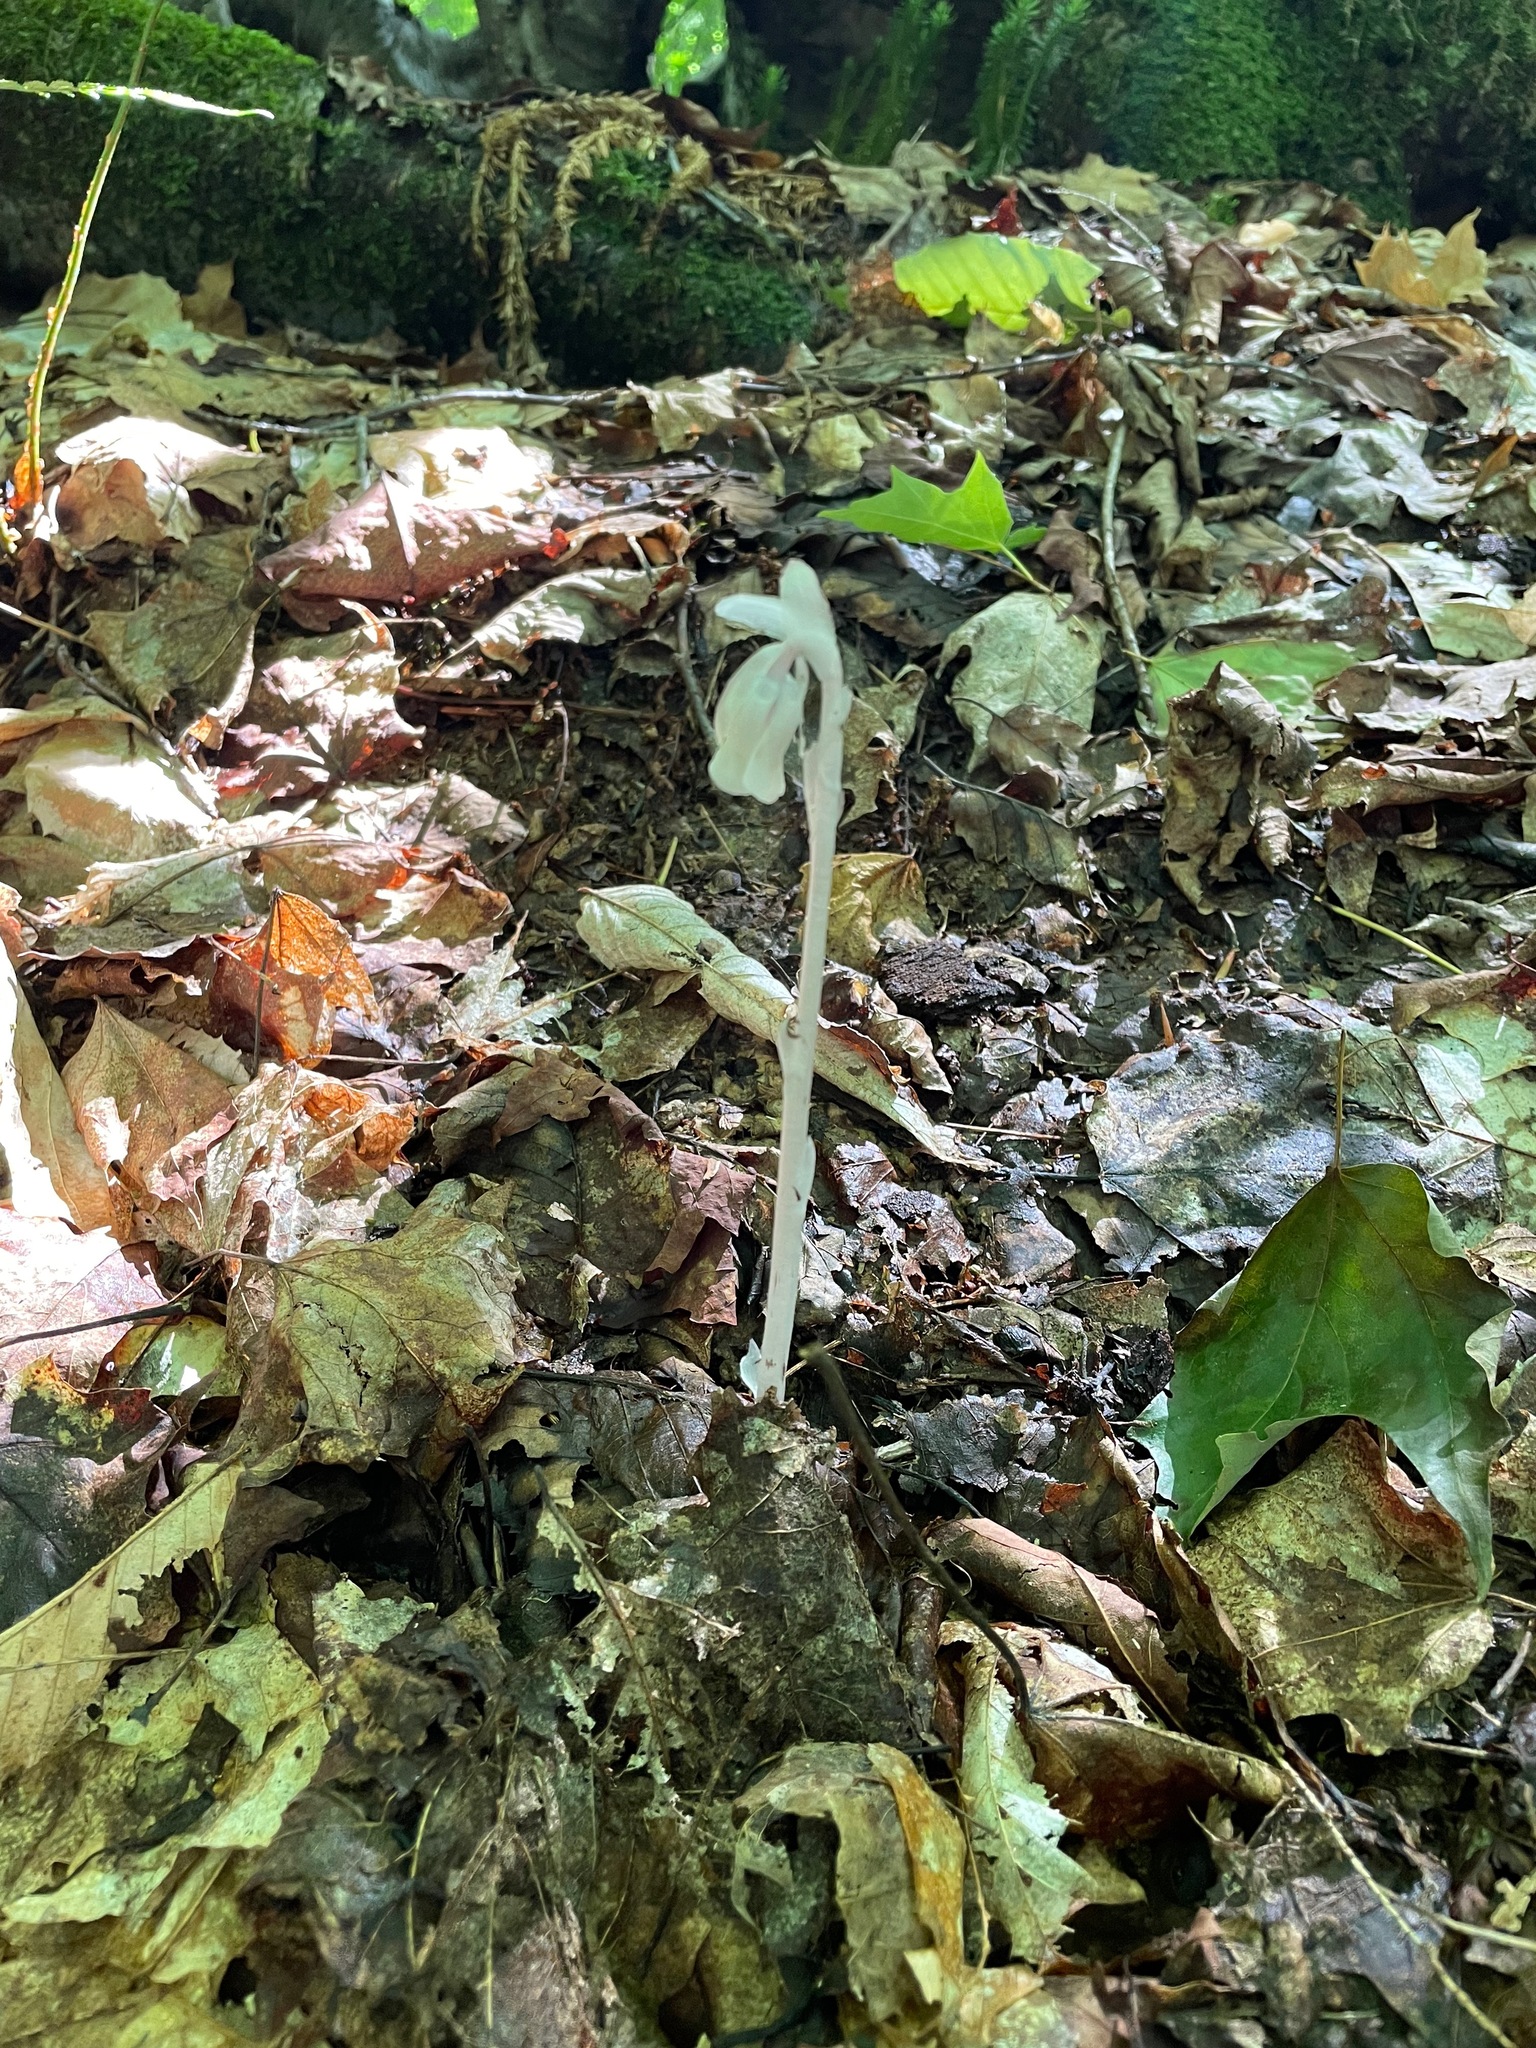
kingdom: Plantae
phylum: Tracheophyta
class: Magnoliopsida
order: Ericales
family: Ericaceae
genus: Monotropa
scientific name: Monotropa uniflora
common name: Convulsion root
